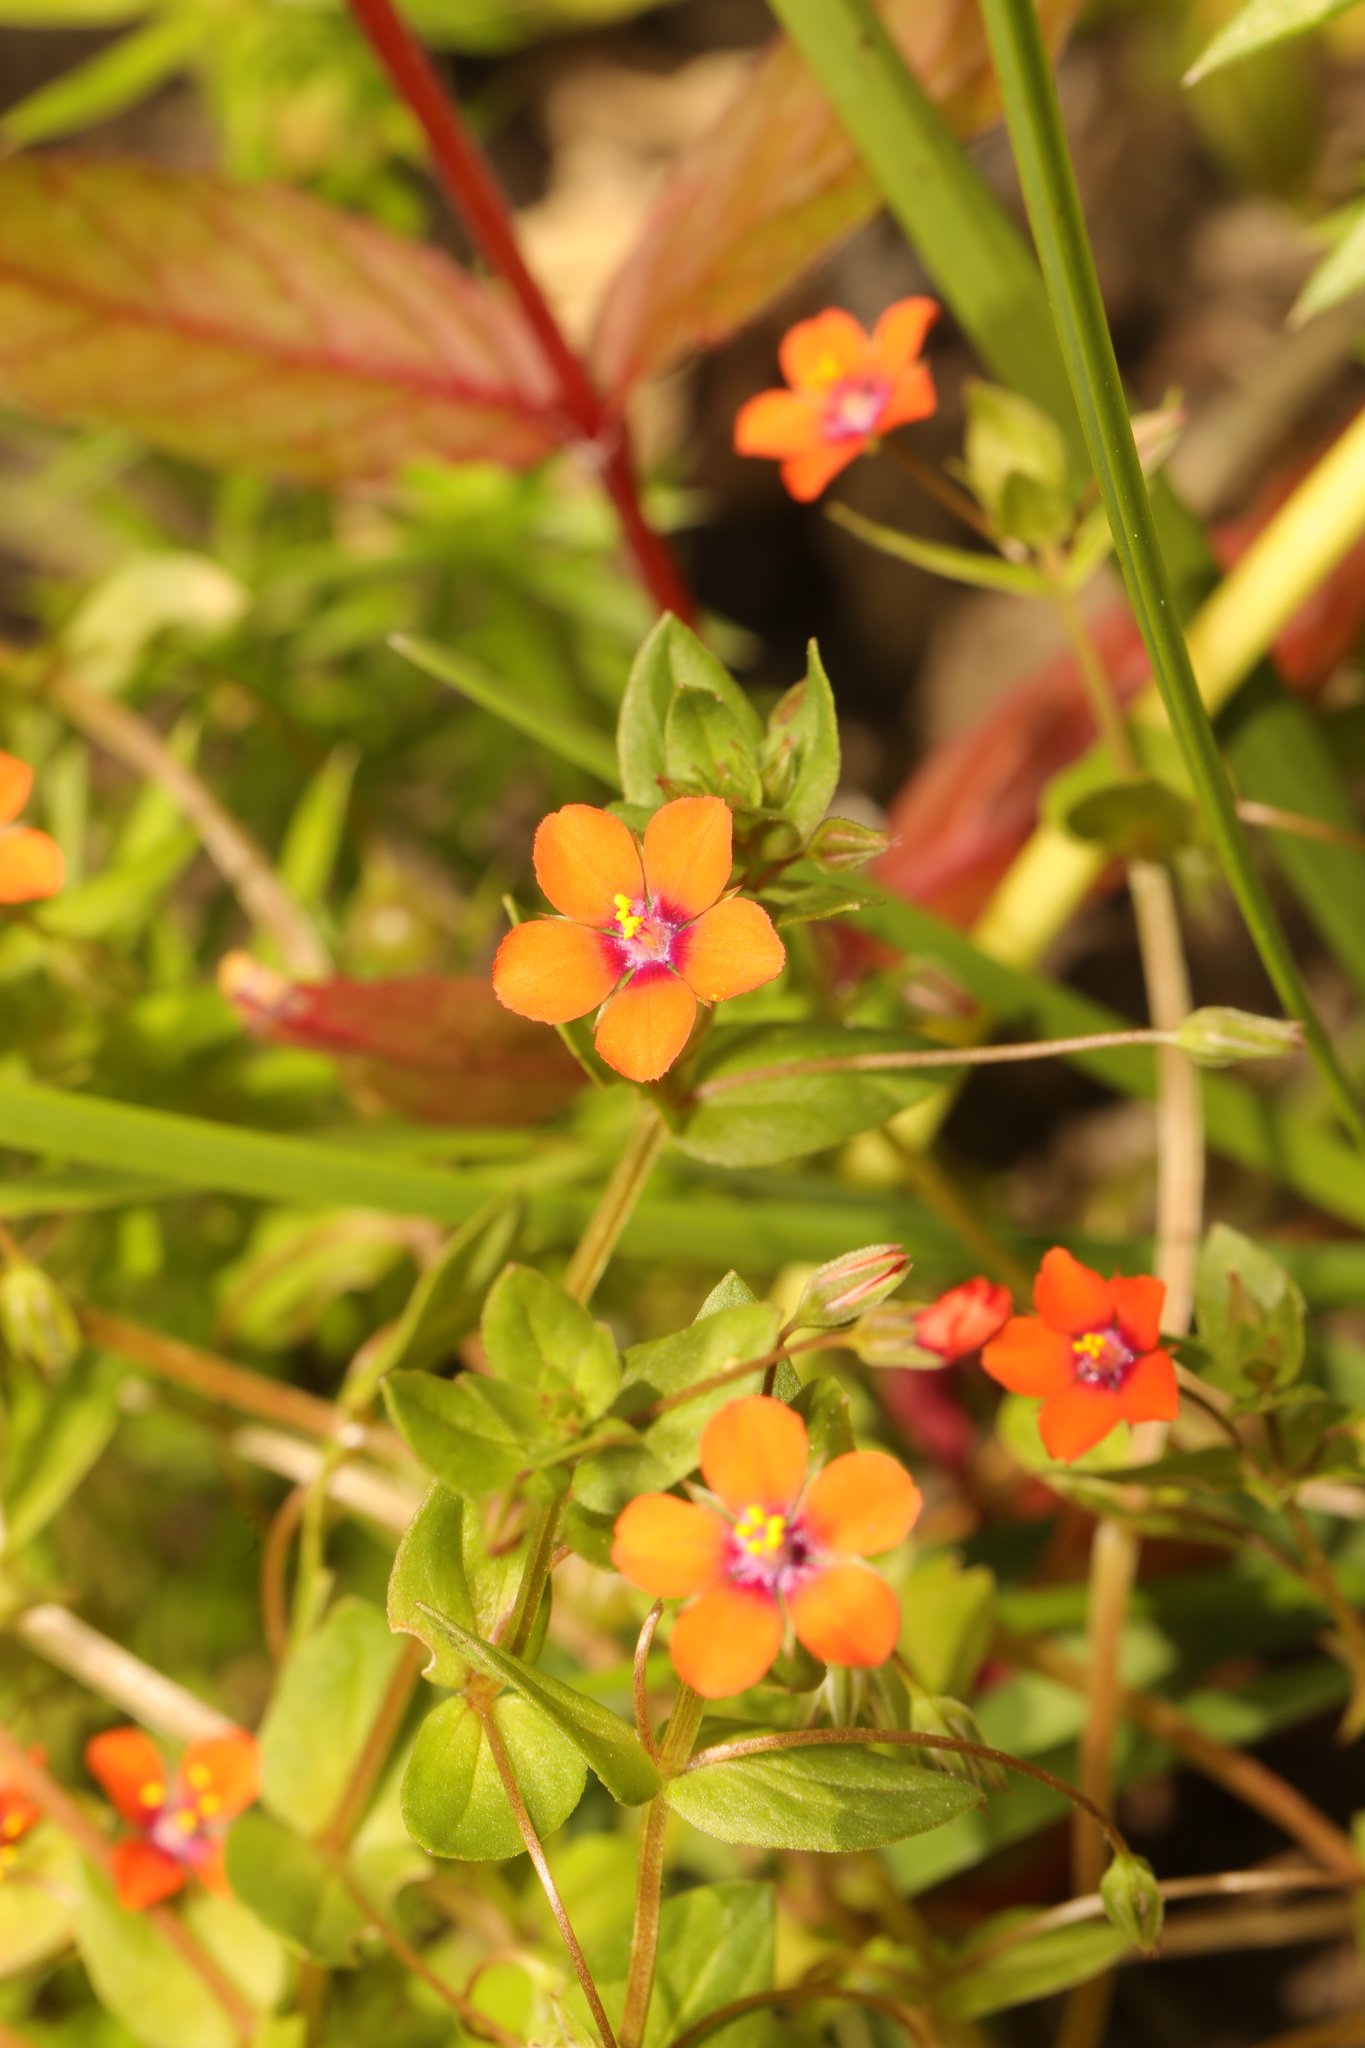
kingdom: Plantae
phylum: Tracheophyta
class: Magnoliopsida
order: Ericales
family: Primulaceae
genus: Lysimachia
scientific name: Lysimachia arvensis
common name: Scarlet pimpernel
